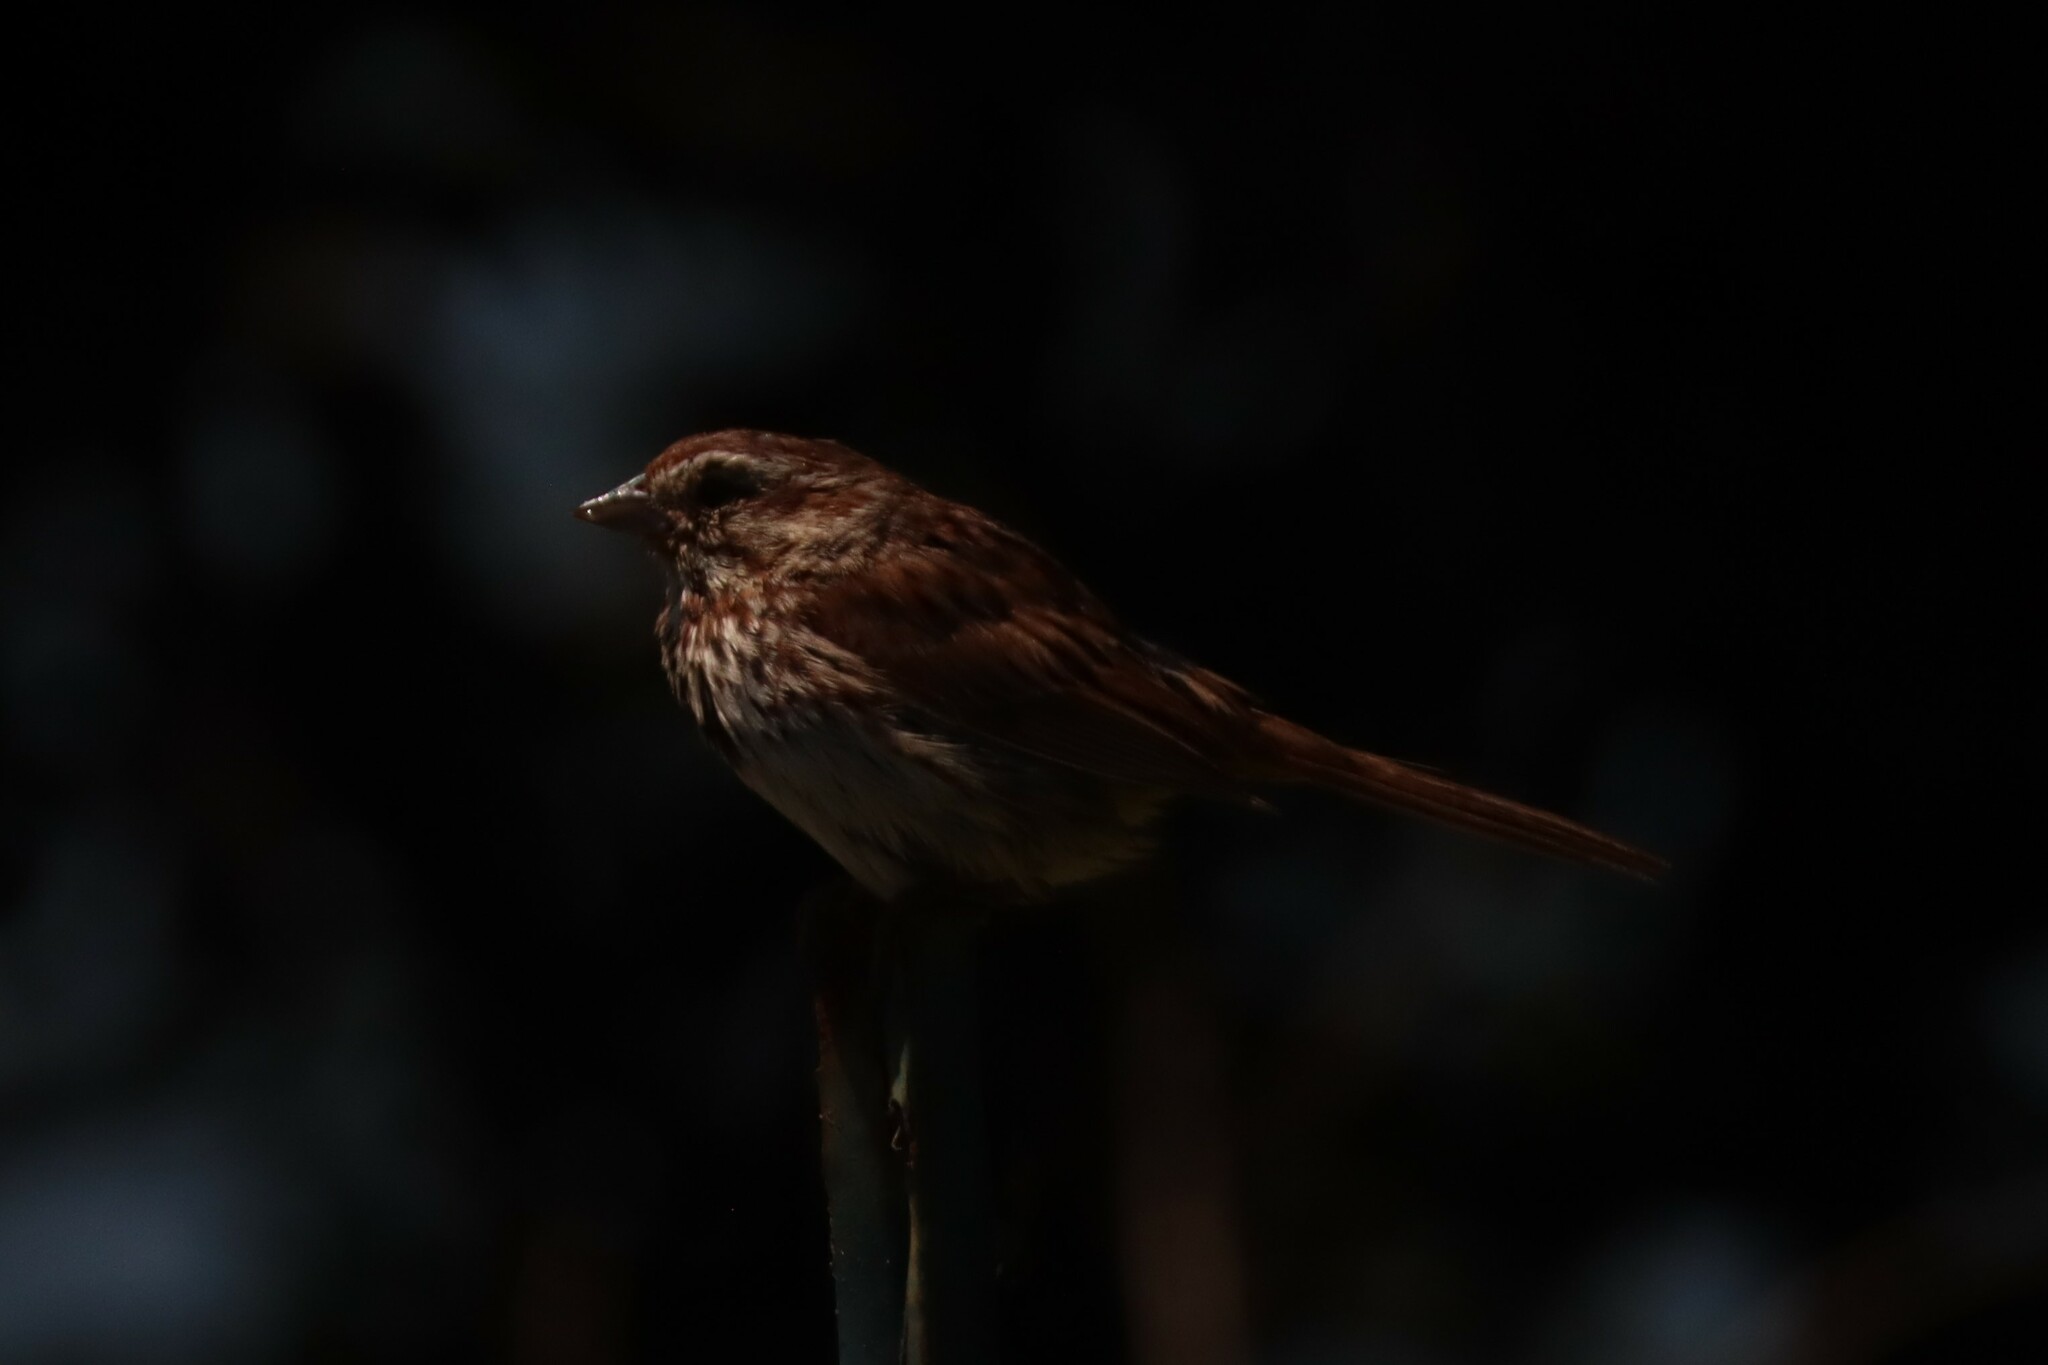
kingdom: Animalia
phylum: Chordata
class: Aves
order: Passeriformes
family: Passerellidae
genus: Melospiza
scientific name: Melospiza melodia
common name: Song sparrow
